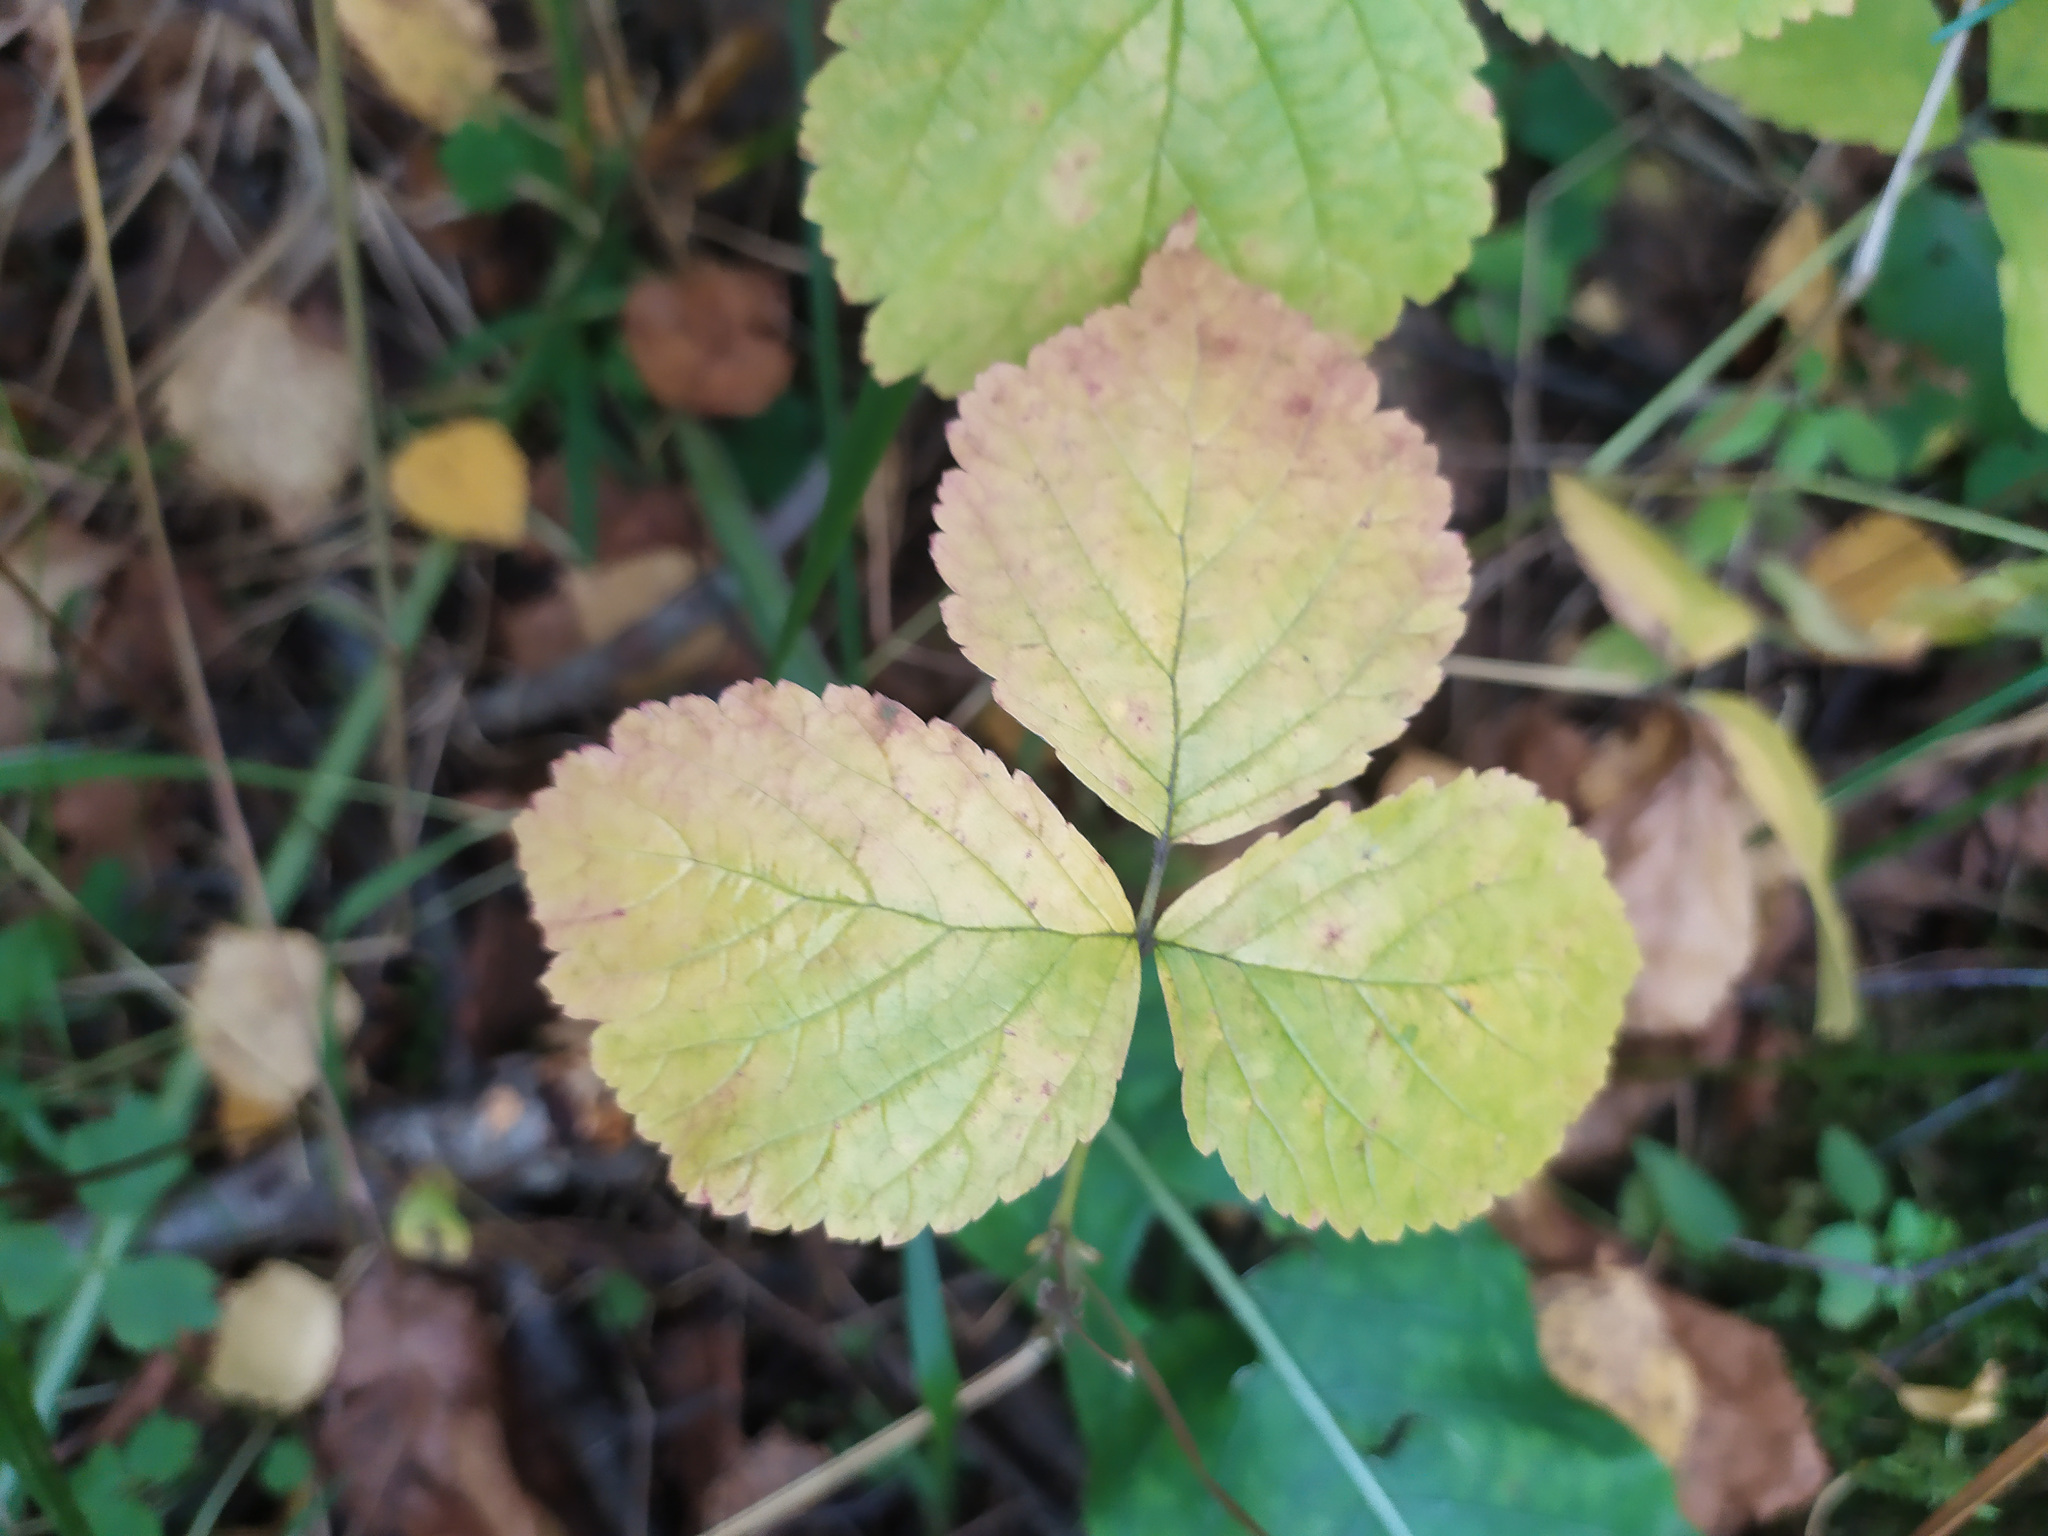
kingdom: Plantae
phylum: Tracheophyta
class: Magnoliopsida
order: Rosales
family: Rosaceae
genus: Rubus
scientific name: Rubus saxatilis
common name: Stone bramble
